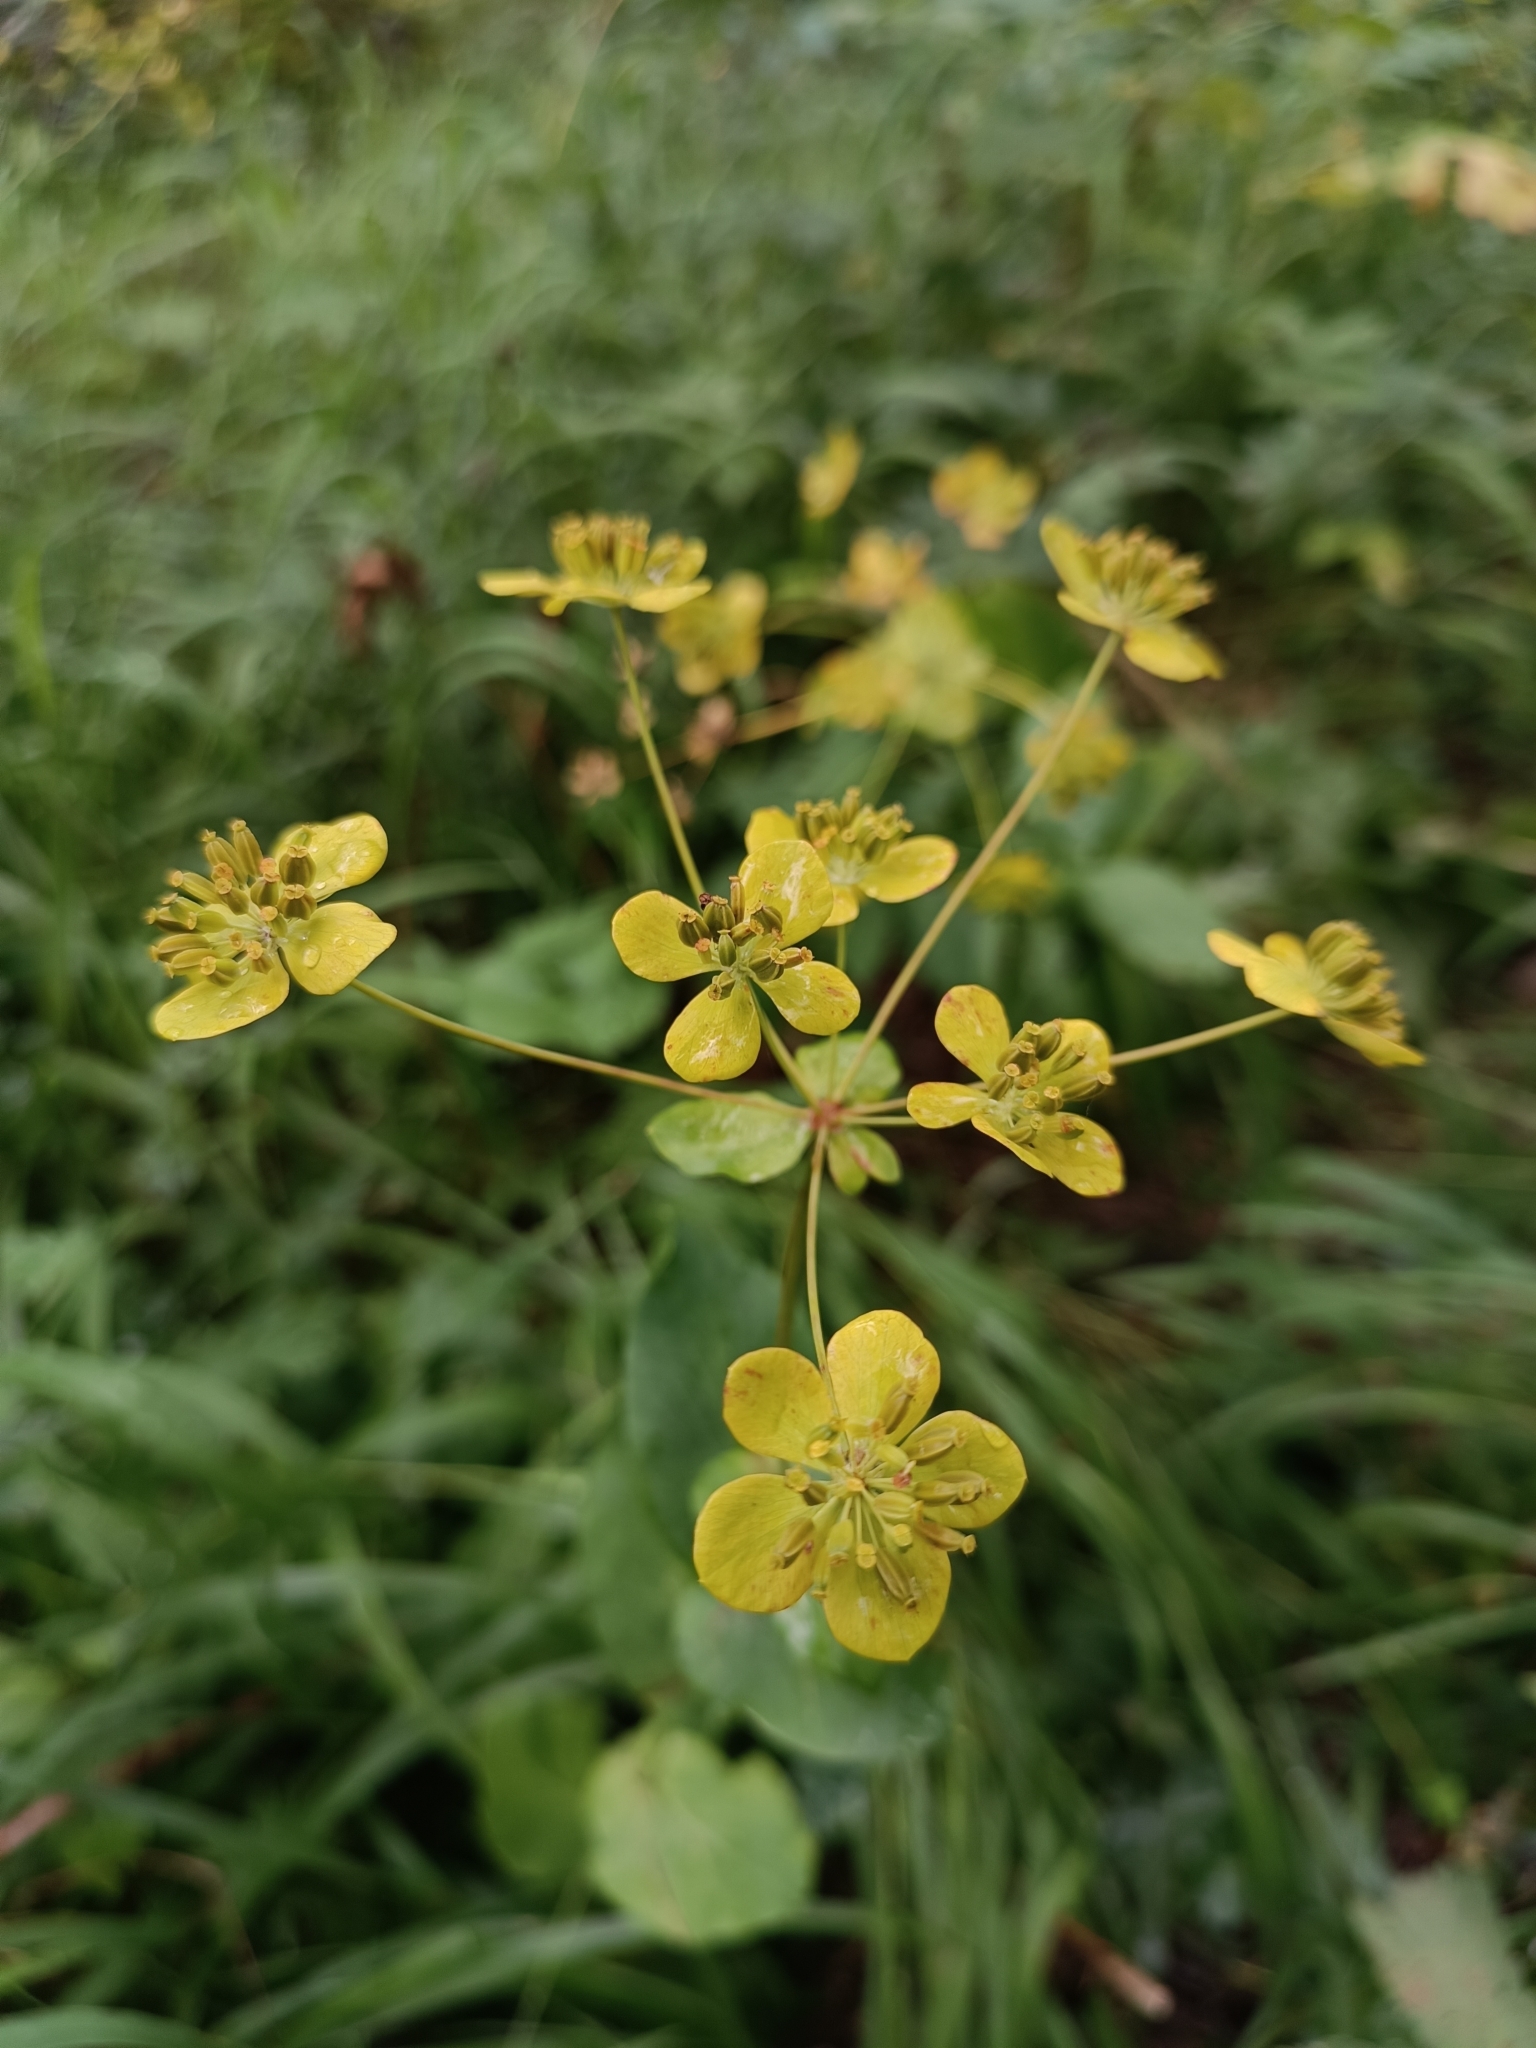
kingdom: Plantae
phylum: Tracheophyta
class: Magnoliopsida
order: Apiales
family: Apiaceae
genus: Bupleurum
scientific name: Bupleurum aureum
